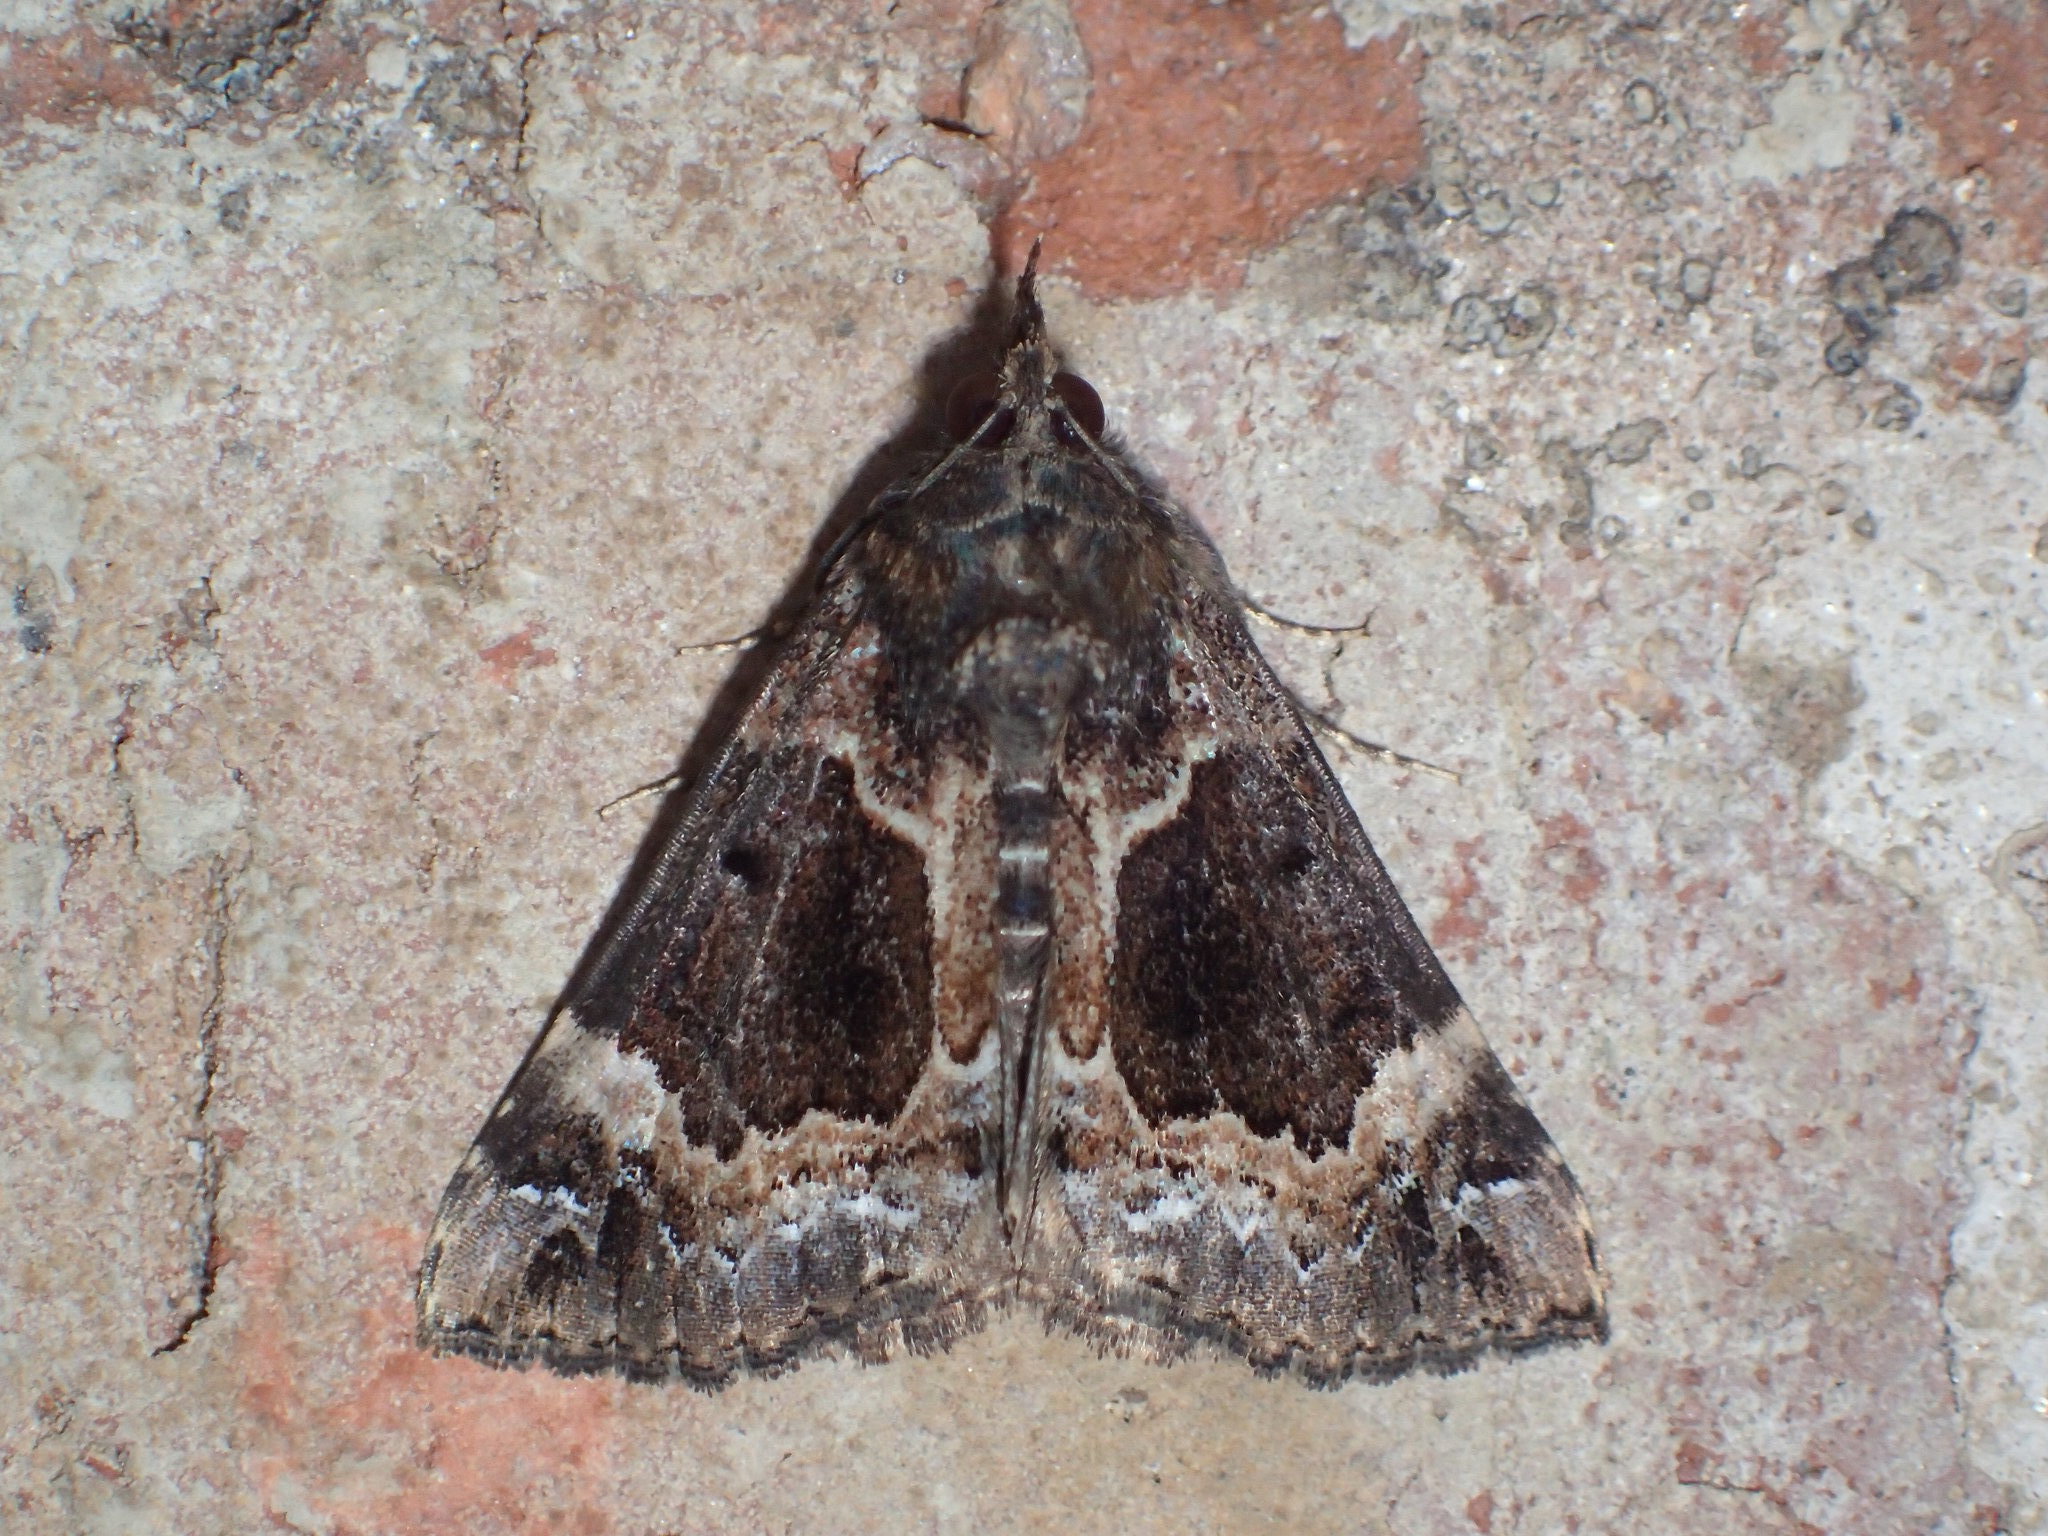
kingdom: Animalia
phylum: Arthropoda
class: Insecta
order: Lepidoptera
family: Erebidae
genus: Hypena
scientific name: Hypena palparia
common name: Mottled bomolocha moth
